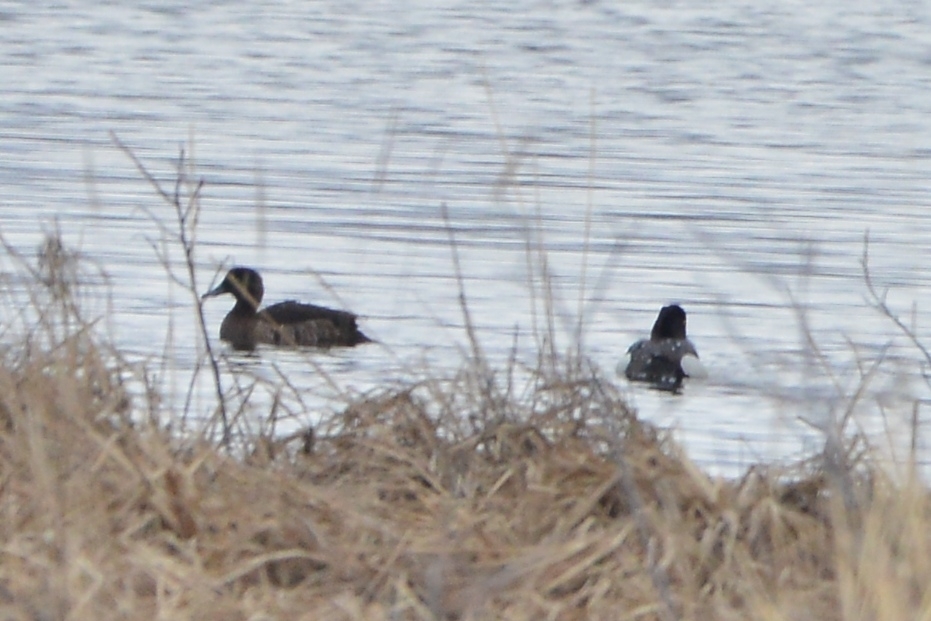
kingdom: Animalia
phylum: Chordata
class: Aves
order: Anseriformes
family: Anatidae
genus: Aythya
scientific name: Aythya fuligula
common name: Tufted duck
